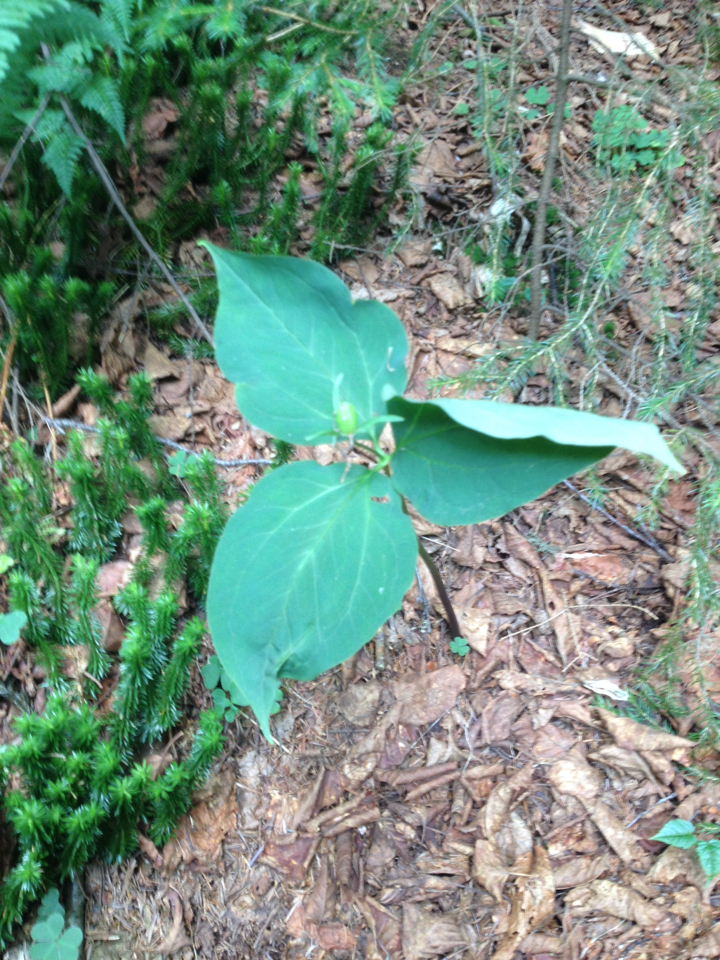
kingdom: Plantae
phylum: Tracheophyta
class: Liliopsida
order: Liliales
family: Melanthiaceae
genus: Trillium
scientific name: Trillium undulatum
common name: Paint trillium
